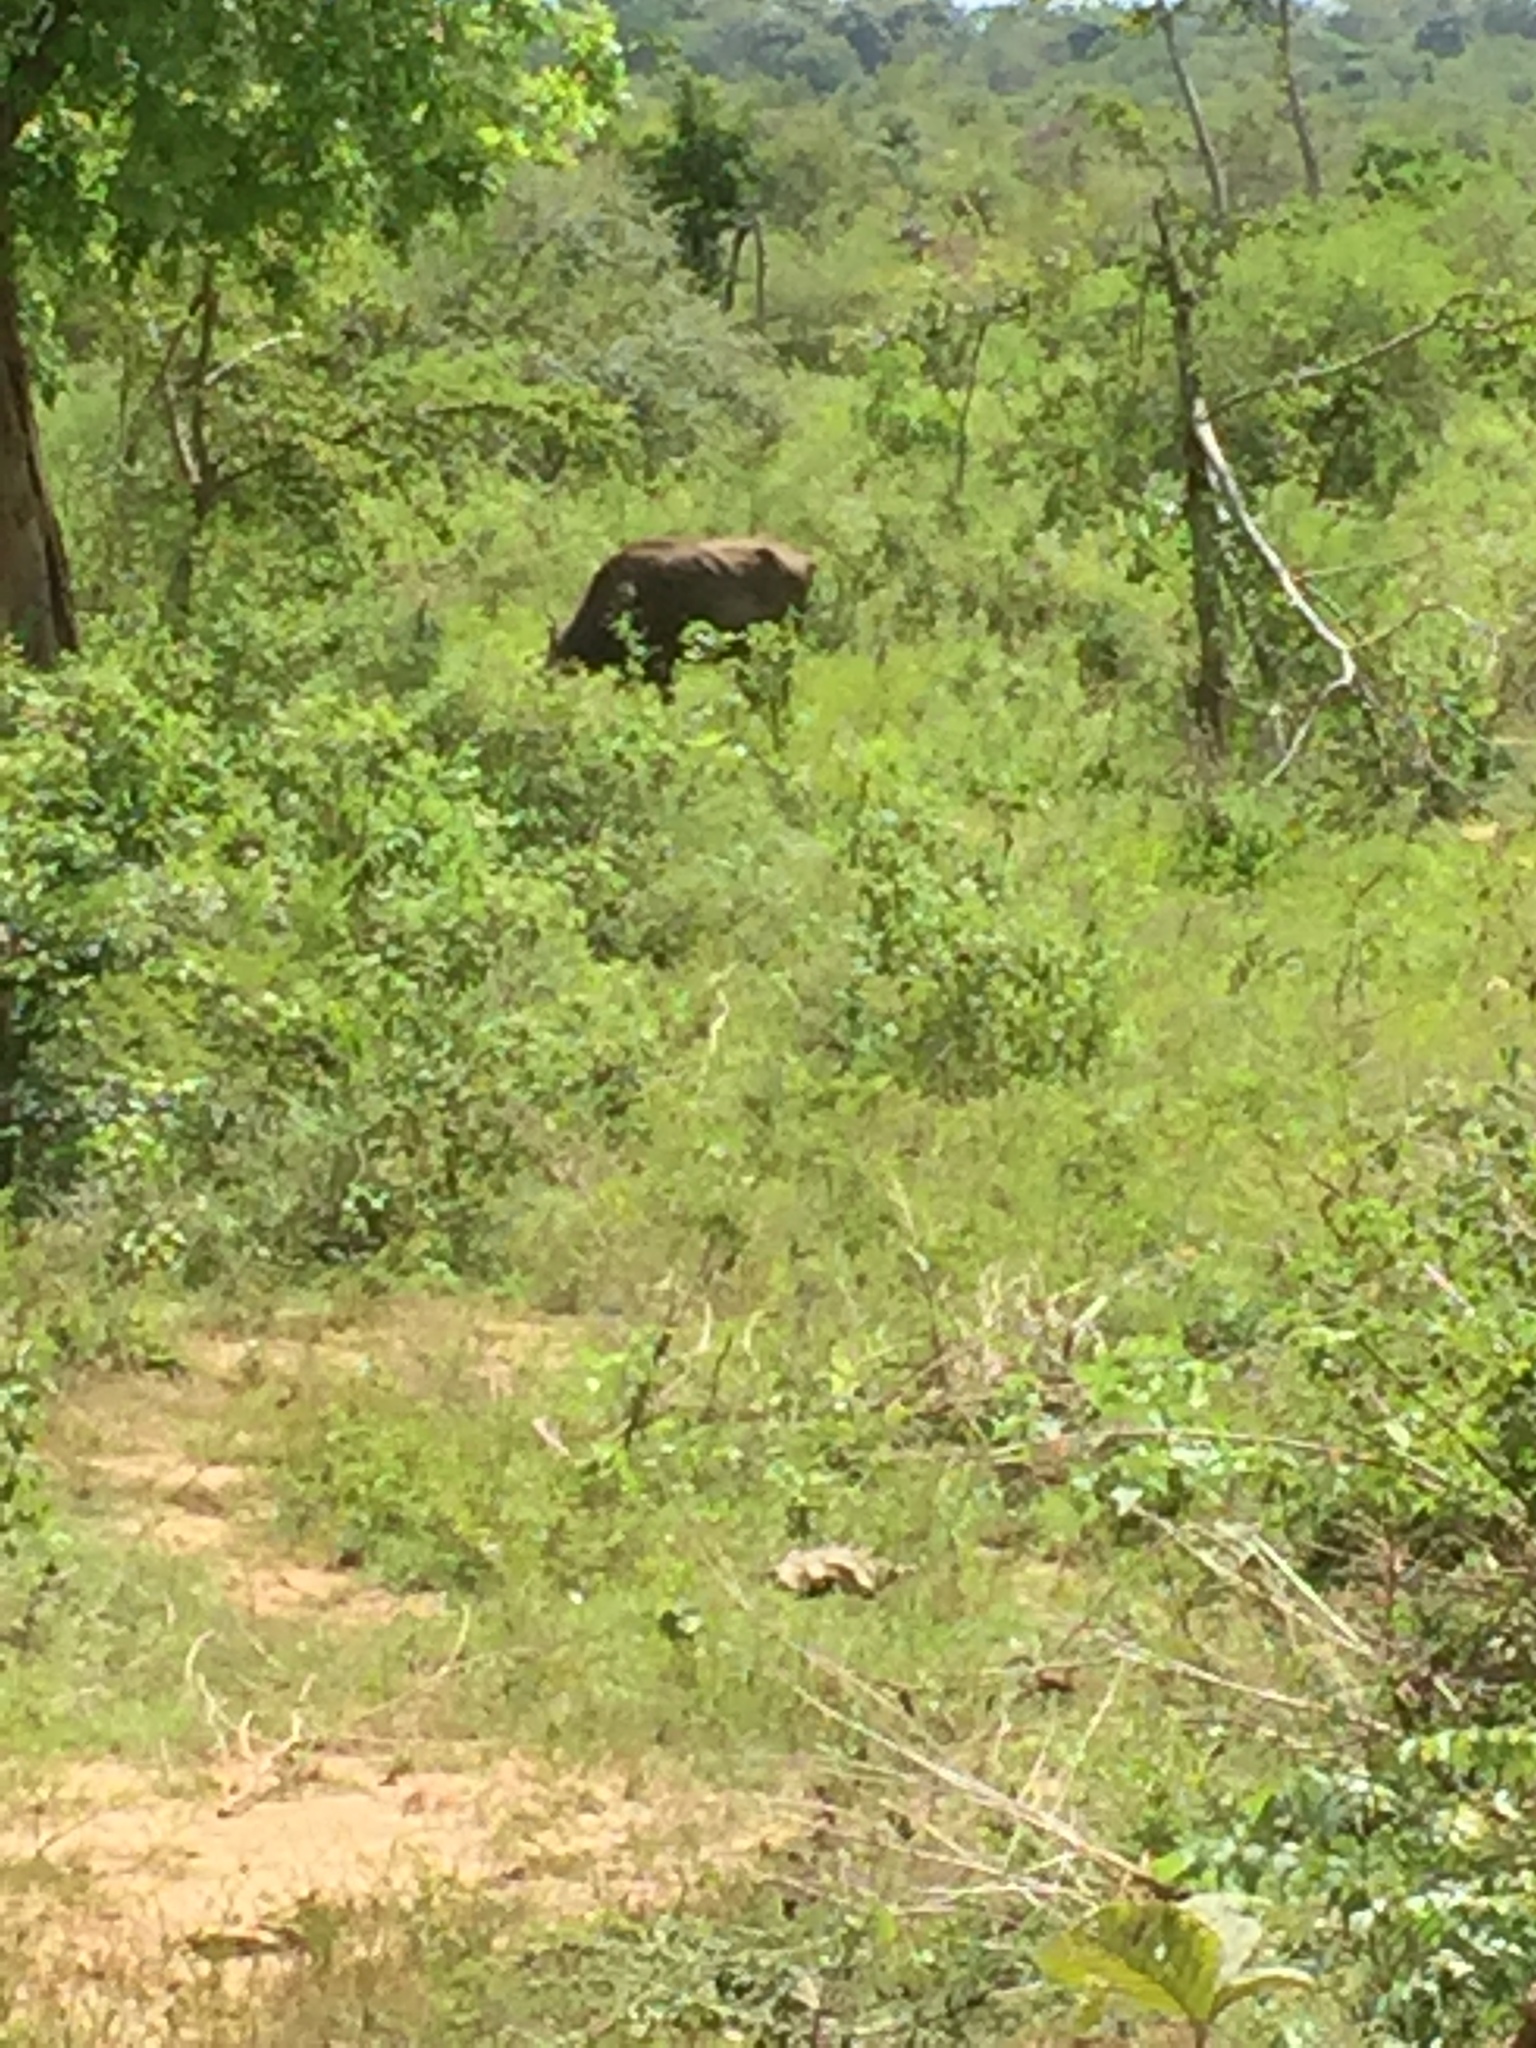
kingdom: Animalia
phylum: Chordata
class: Mammalia
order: Artiodactyla
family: Bovidae
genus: Bos
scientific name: Bos taurus
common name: Domesticated cattle
